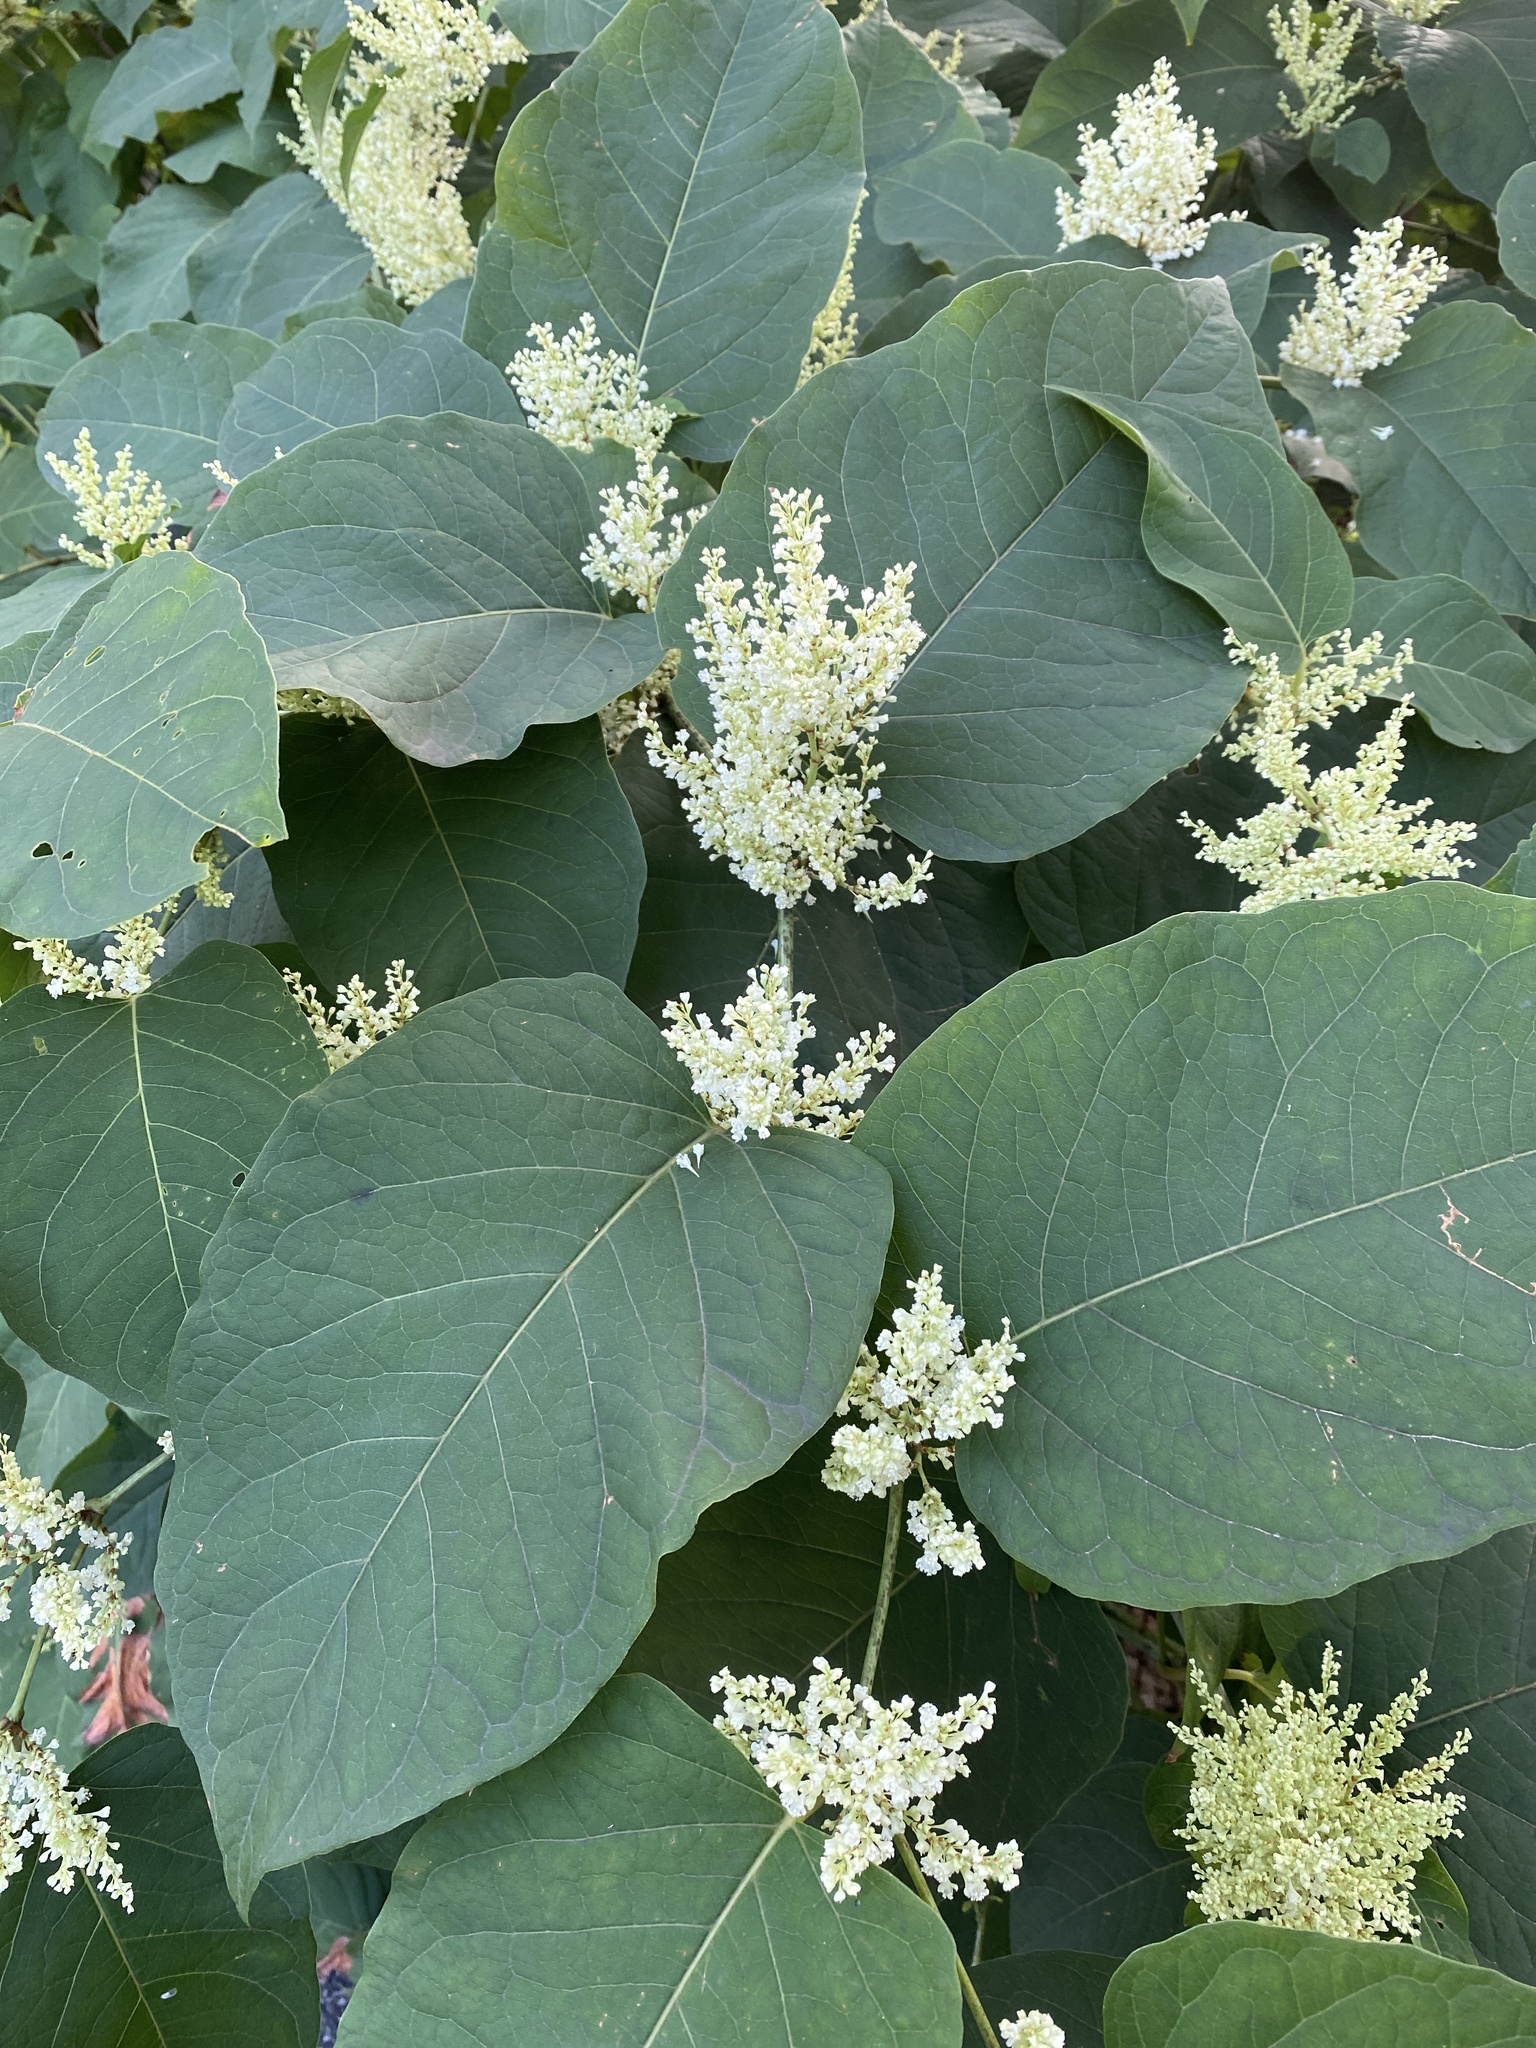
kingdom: Plantae
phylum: Tracheophyta
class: Magnoliopsida
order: Caryophyllales
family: Polygonaceae
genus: Reynoutria
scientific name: Reynoutria bohemica
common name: Bohemian knotweed
